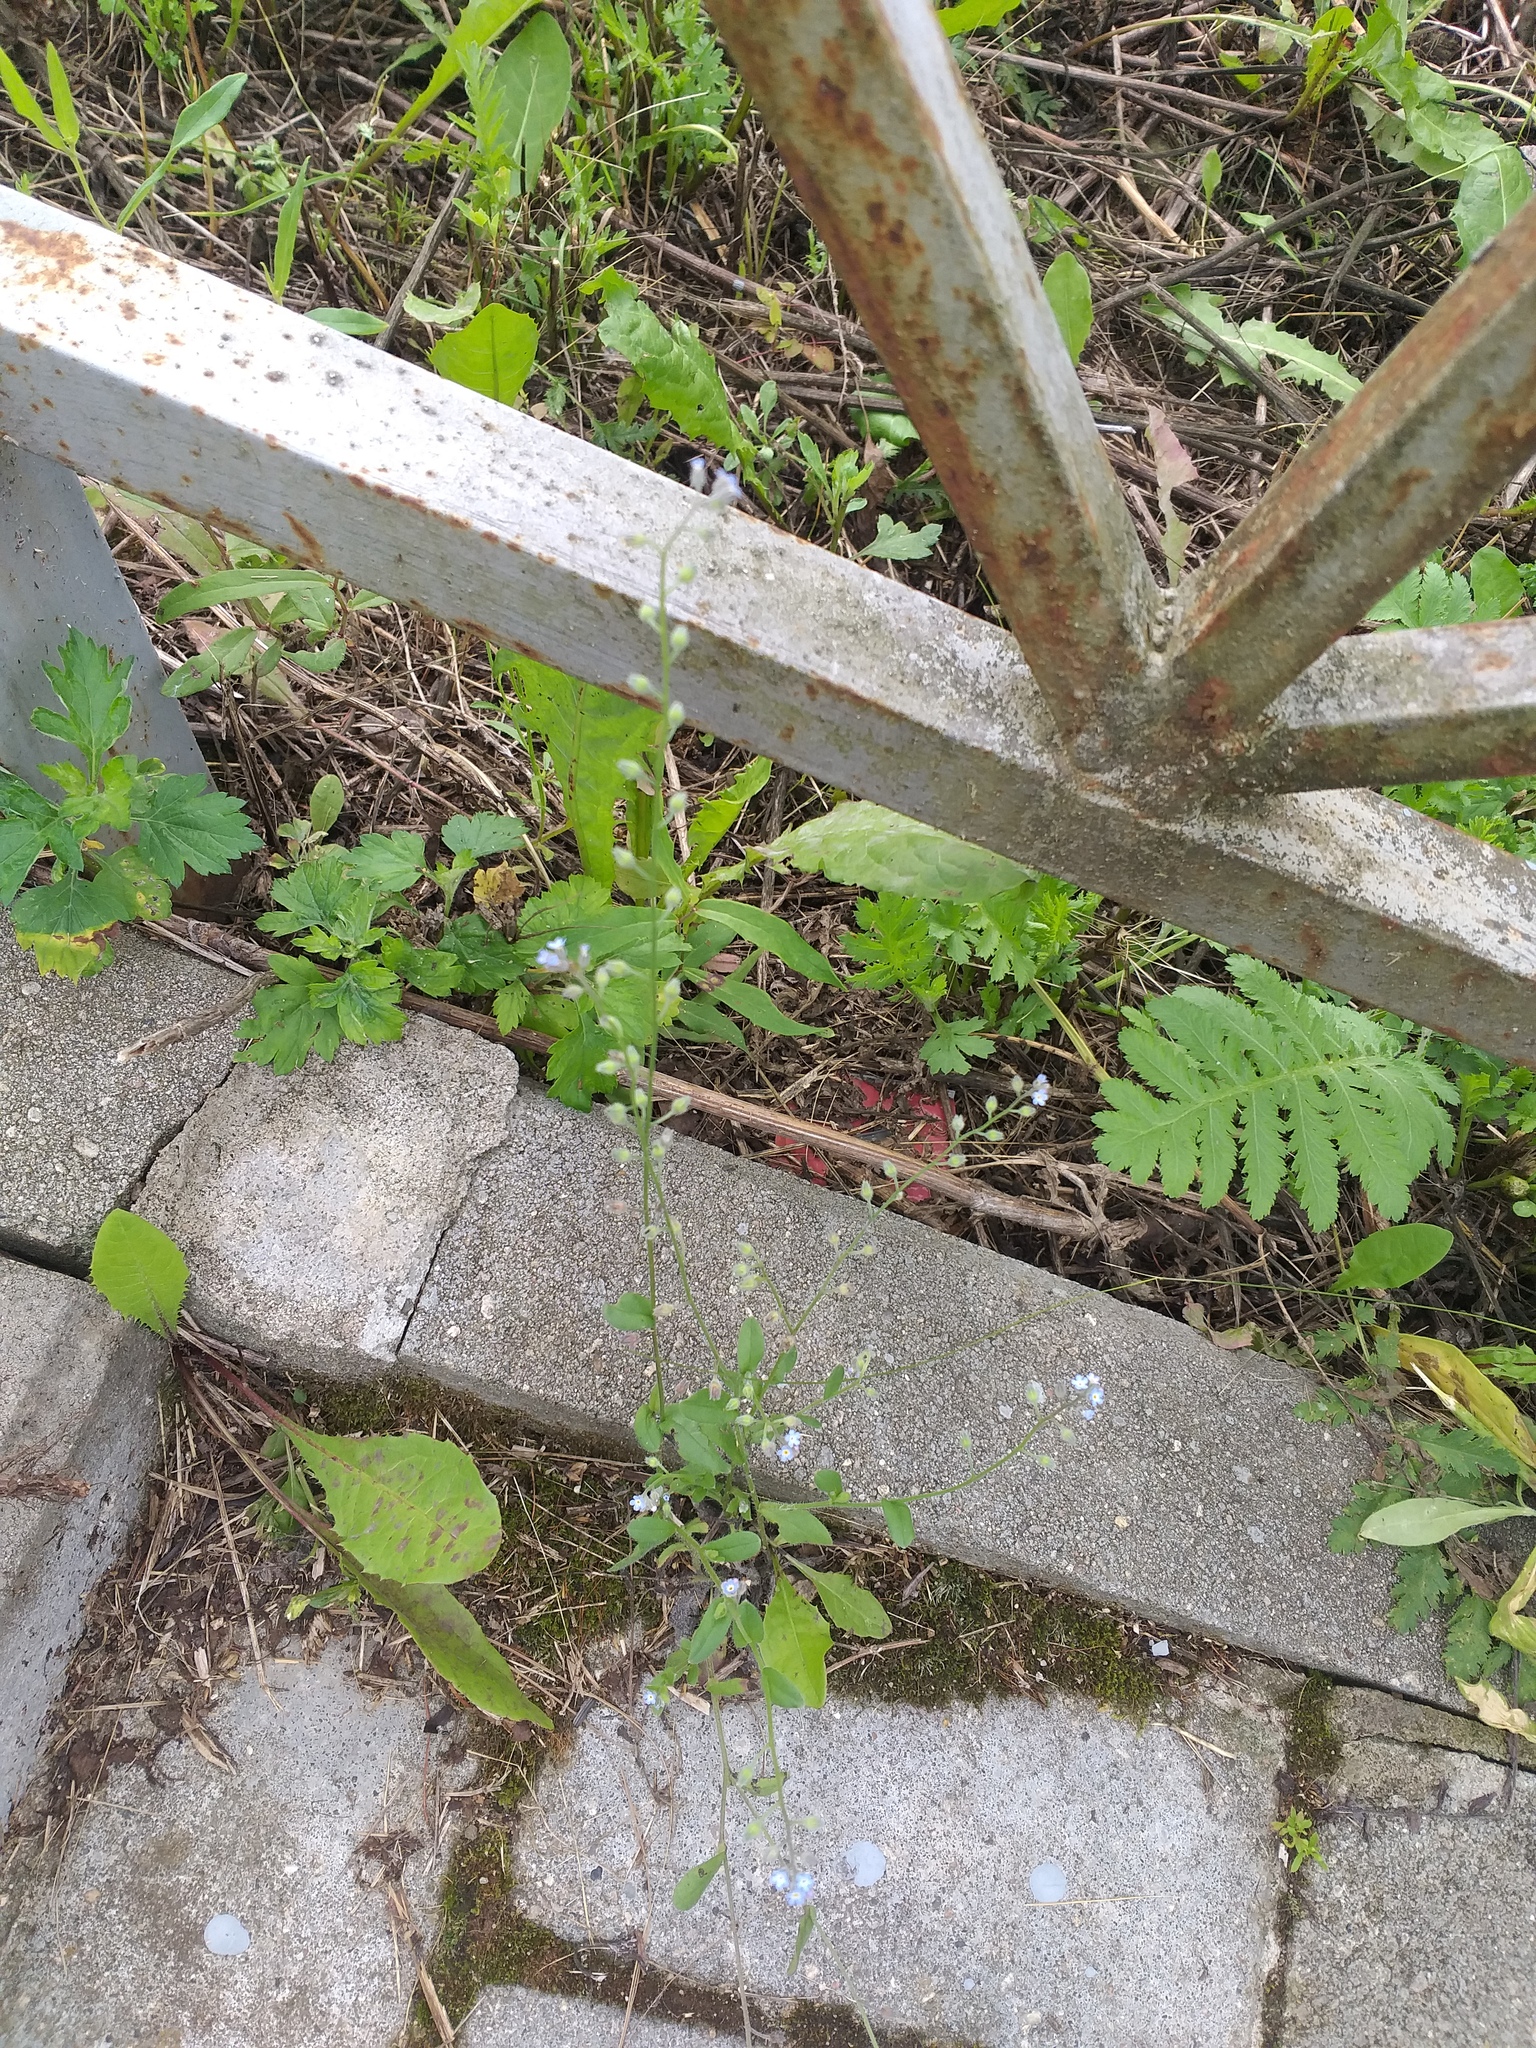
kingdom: Plantae
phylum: Tracheophyta
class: Magnoliopsida
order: Boraginales
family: Boraginaceae
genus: Myosotis
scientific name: Myosotis arvensis
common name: Field forget-me-not
